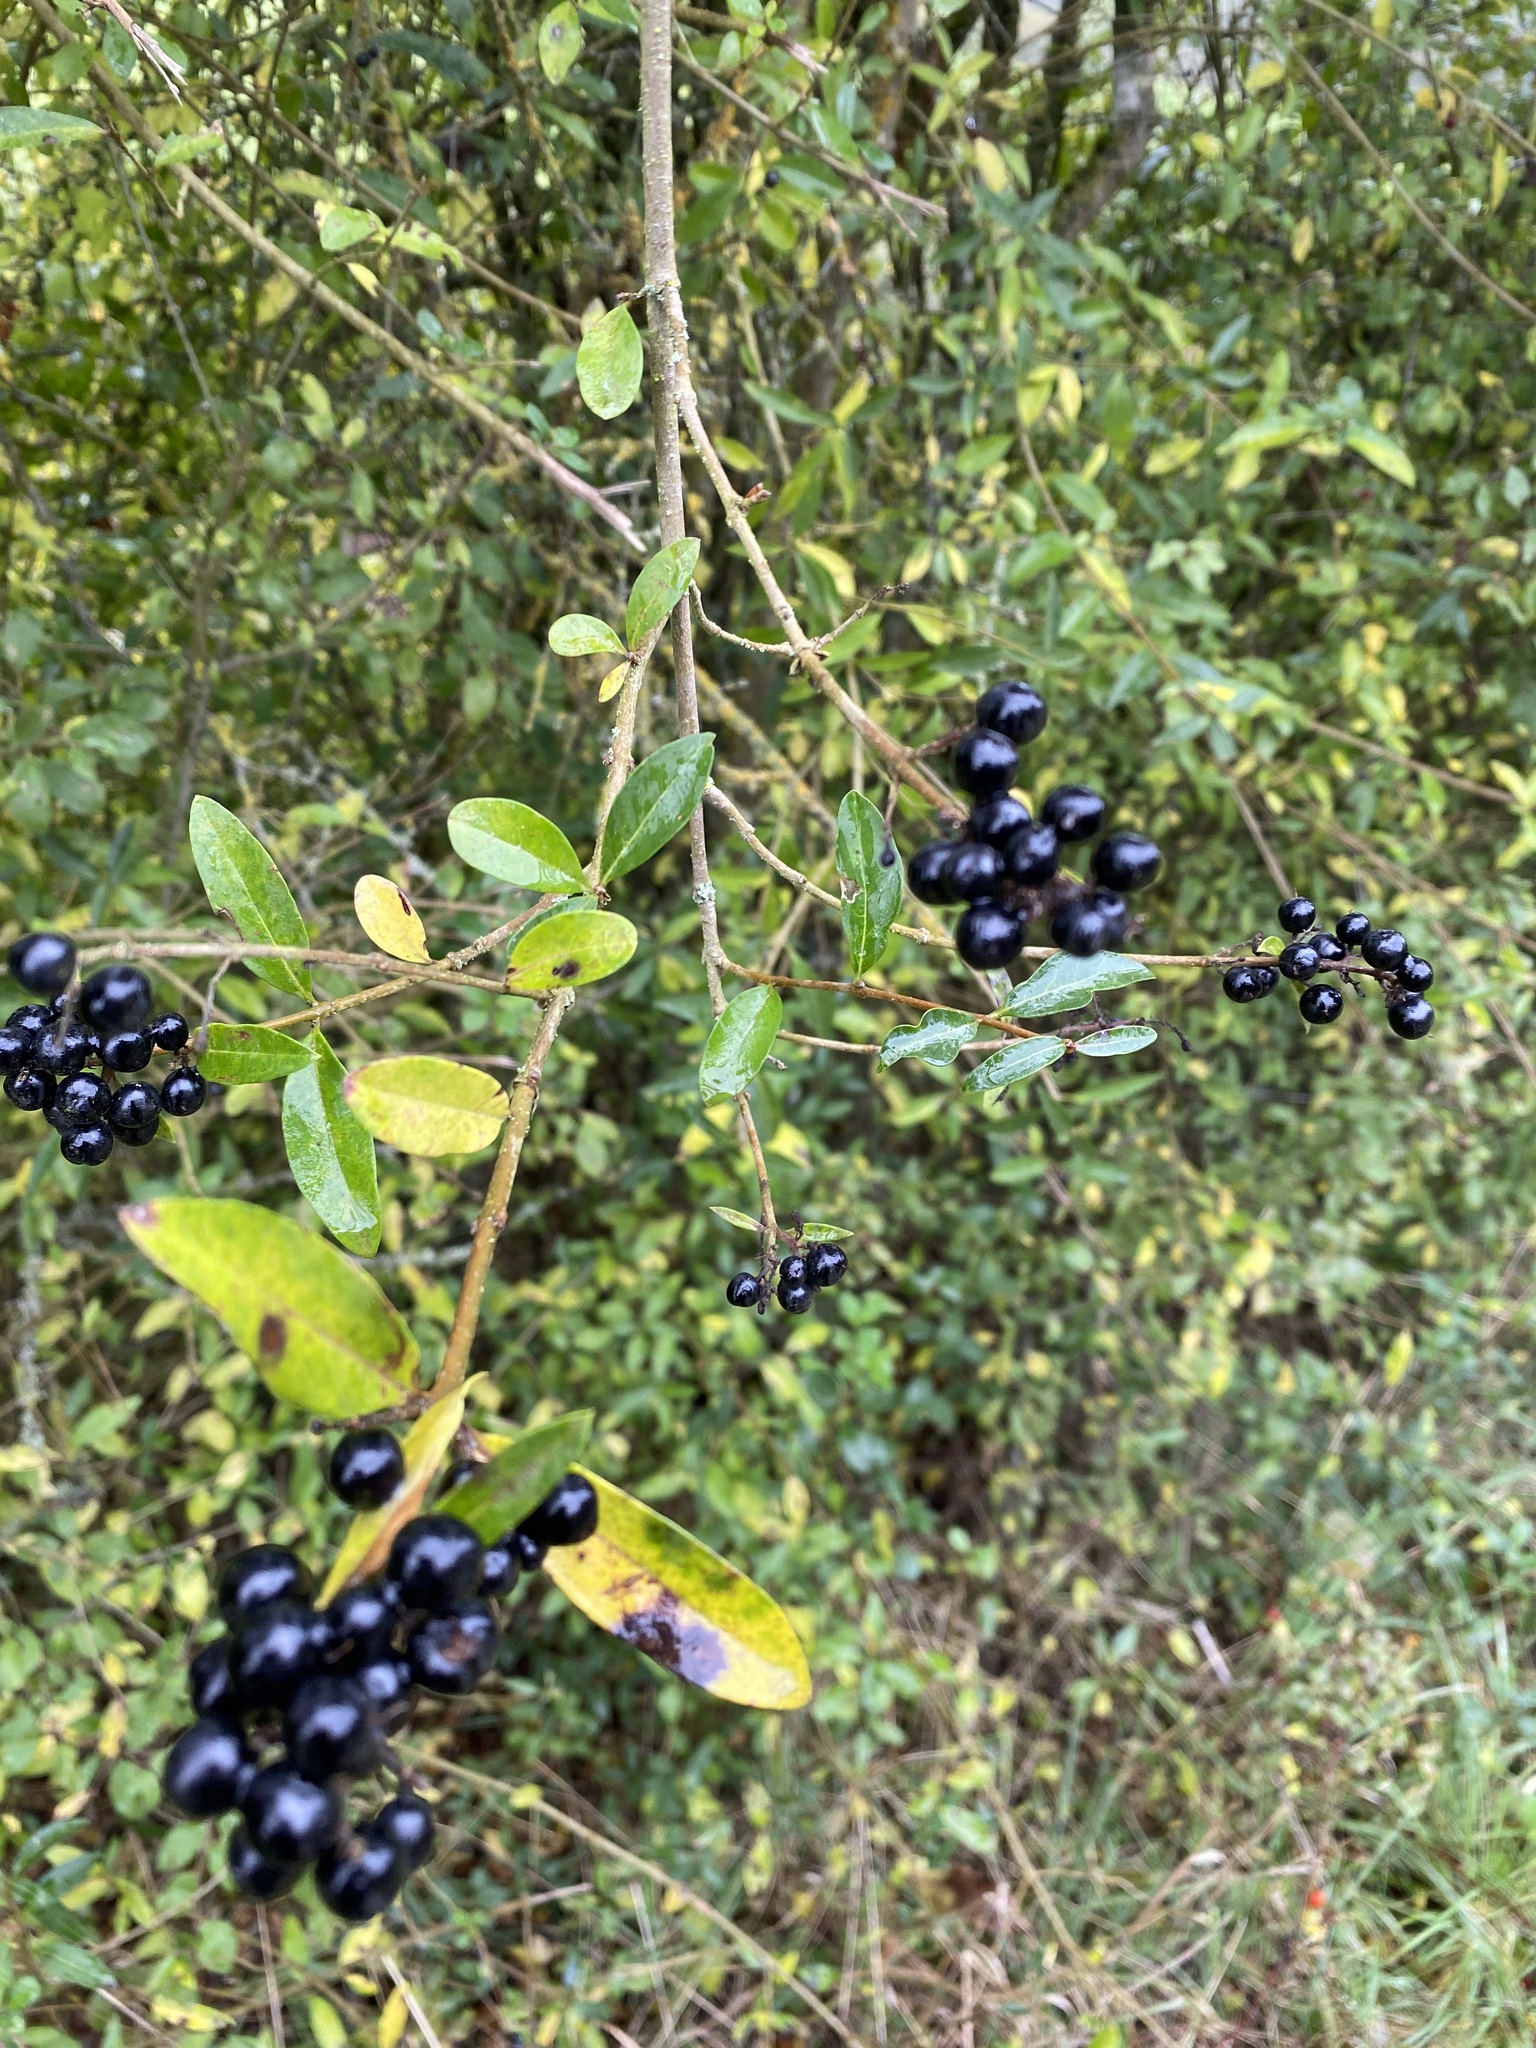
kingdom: Plantae
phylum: Tracheophyta
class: Magnoliopsida
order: Lamiales
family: Oleaceae
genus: Ligustrum
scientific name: Ligustrum vulgare
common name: Wild privet
